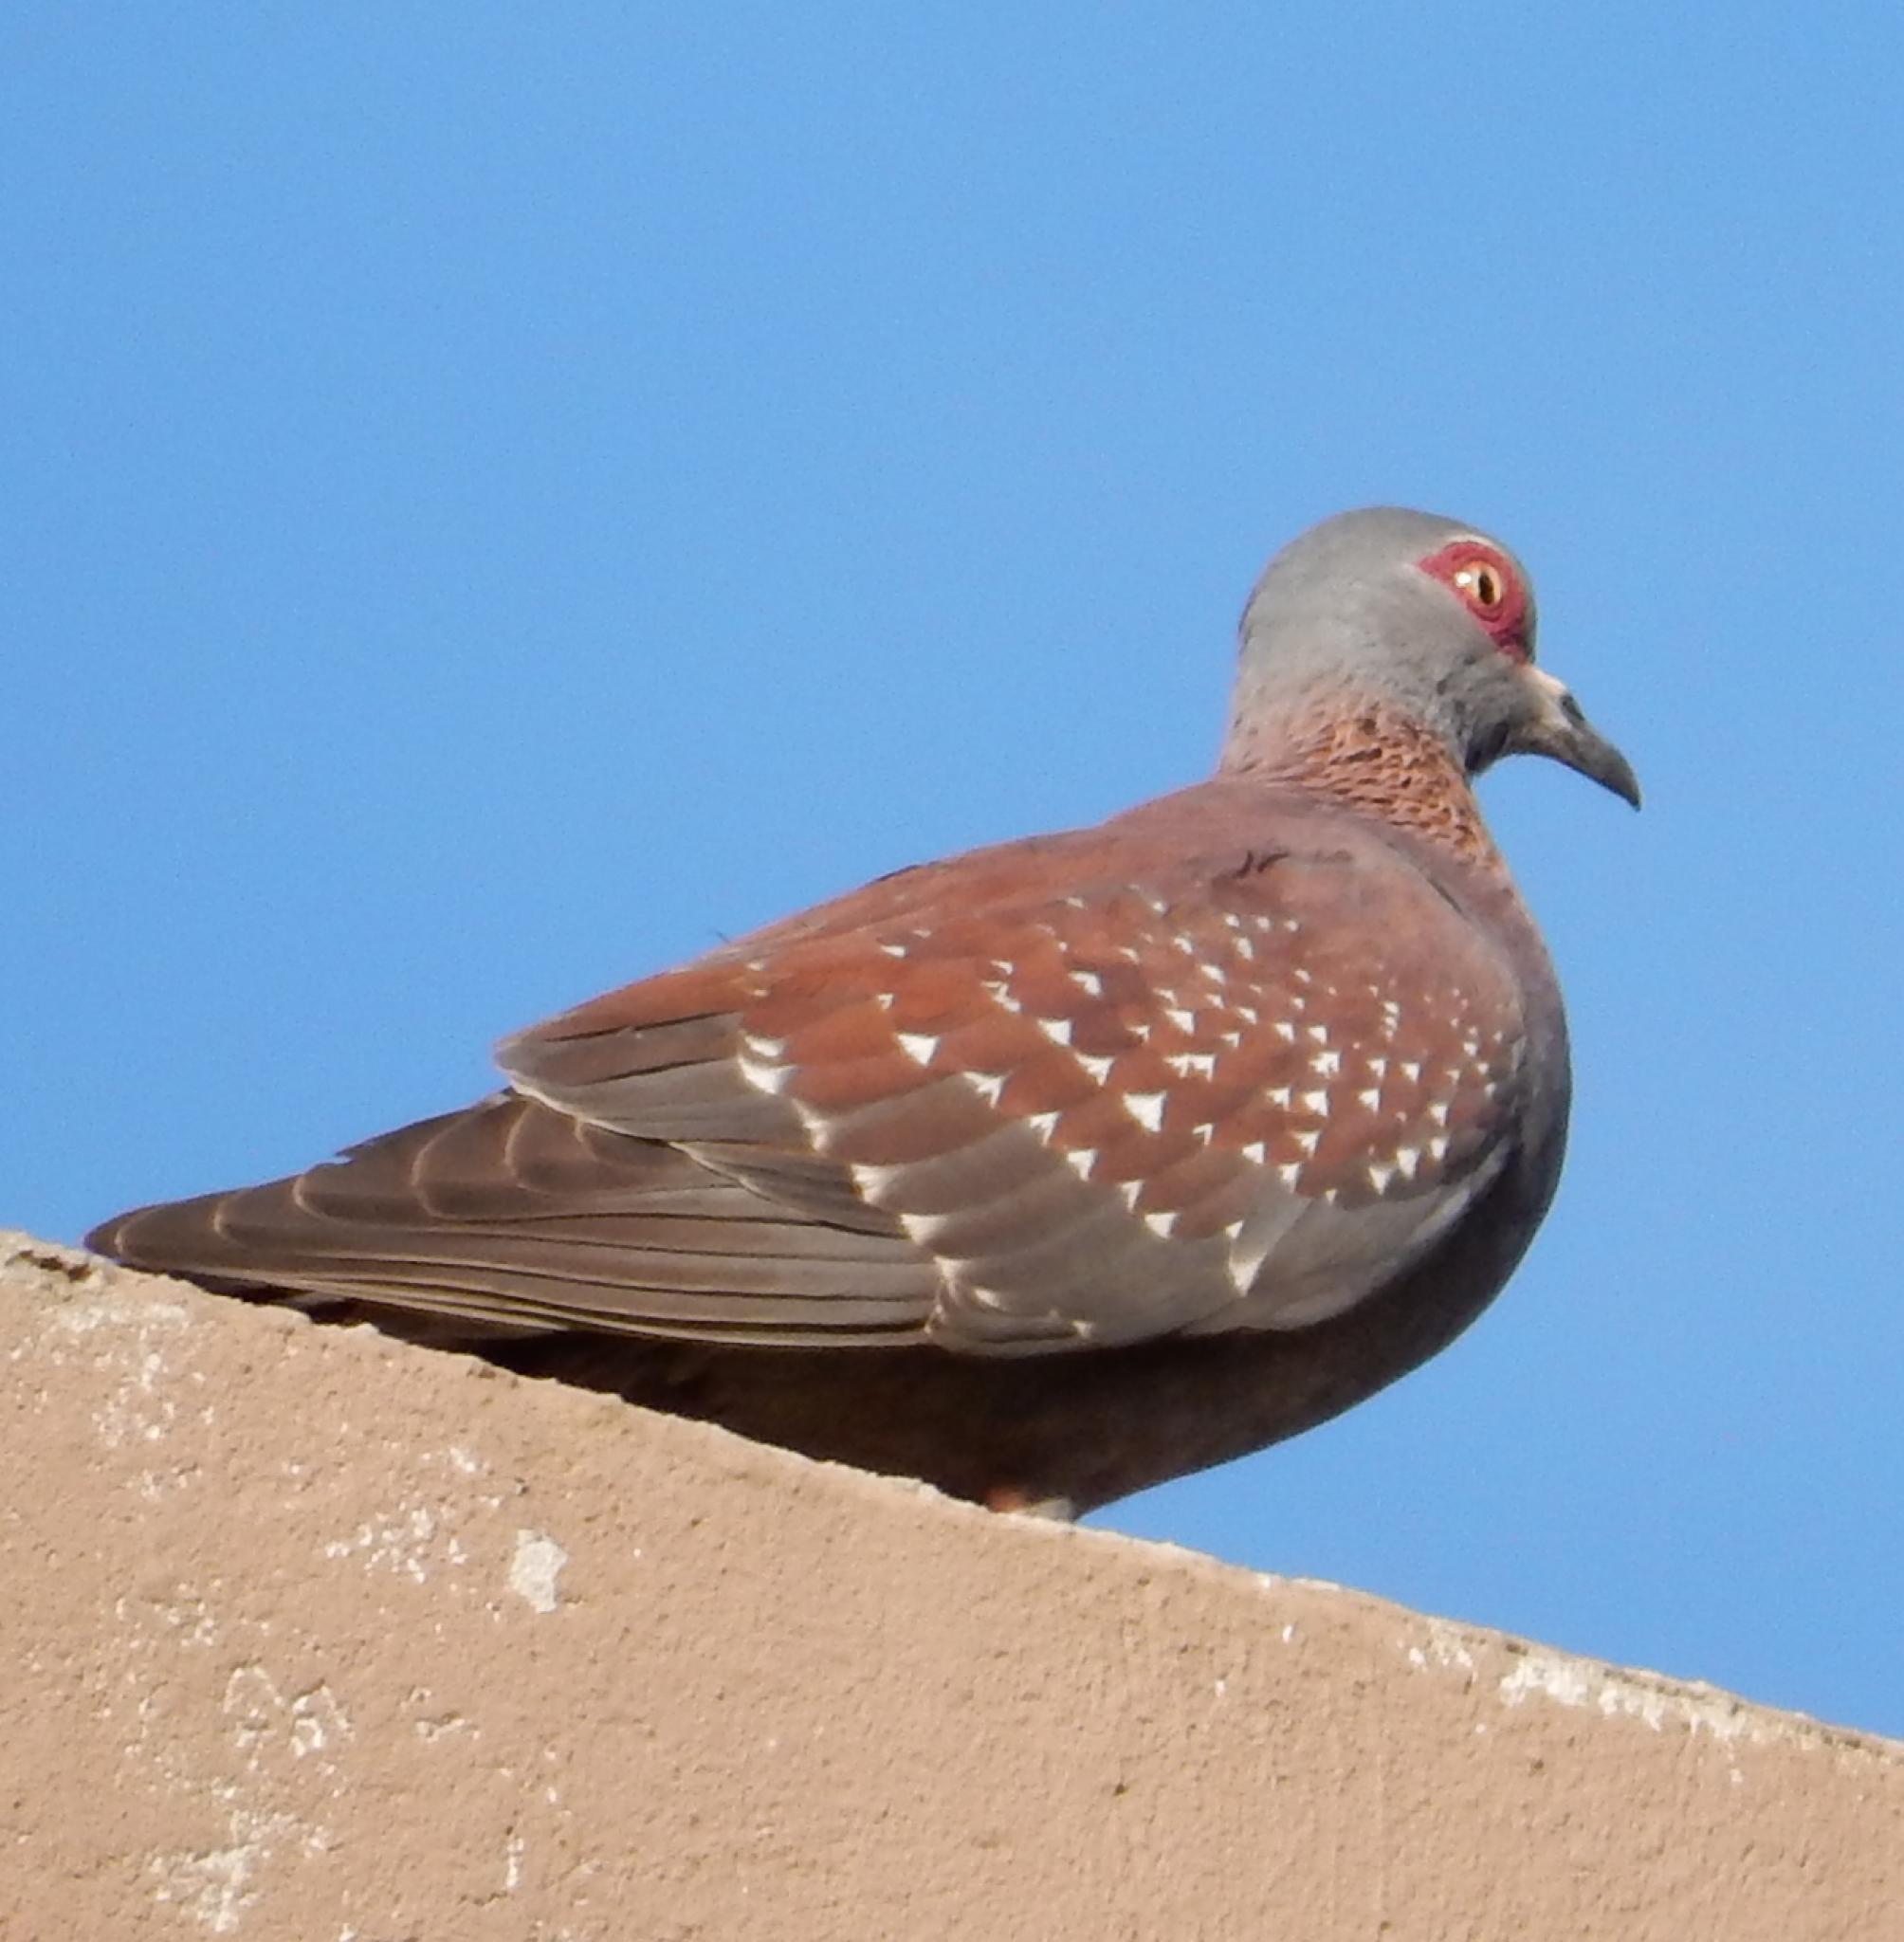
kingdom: Animalia
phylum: Chordata
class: Aves
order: Columbiformes
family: Columbidae
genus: Columba
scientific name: Columba guinea
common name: Speckled pigeon
